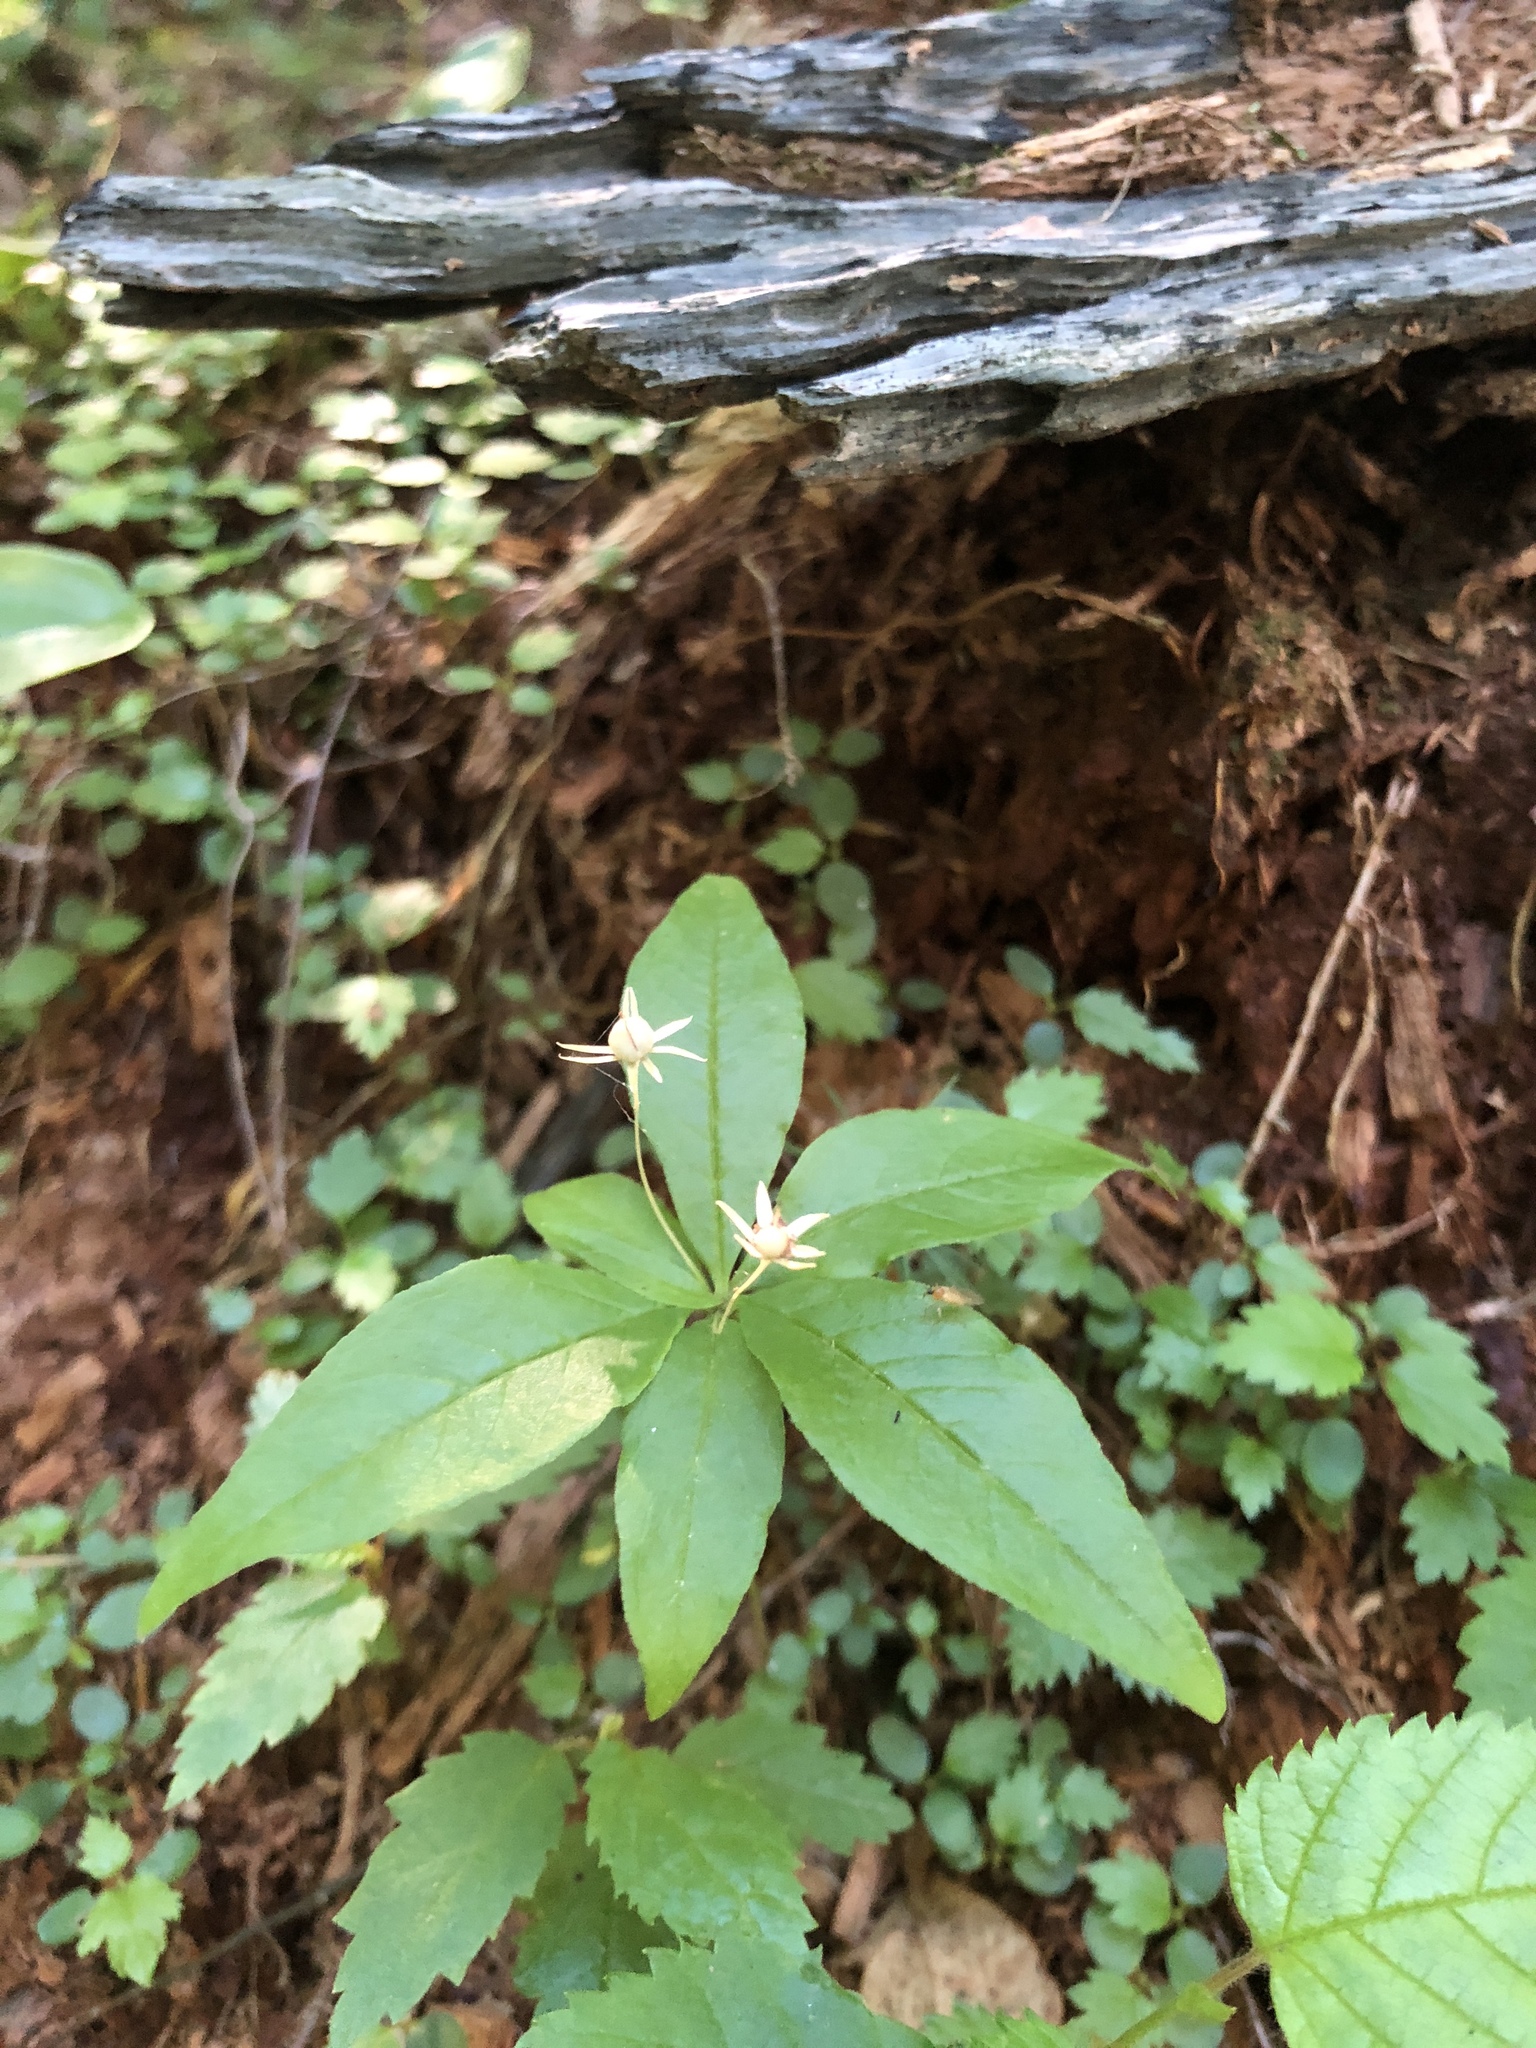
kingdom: Plantae
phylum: Tracheophyta
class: Magnoliopsida
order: Ericales
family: Primulaceae
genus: Lysimachia
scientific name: Lysimachia borealis
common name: American starflower
